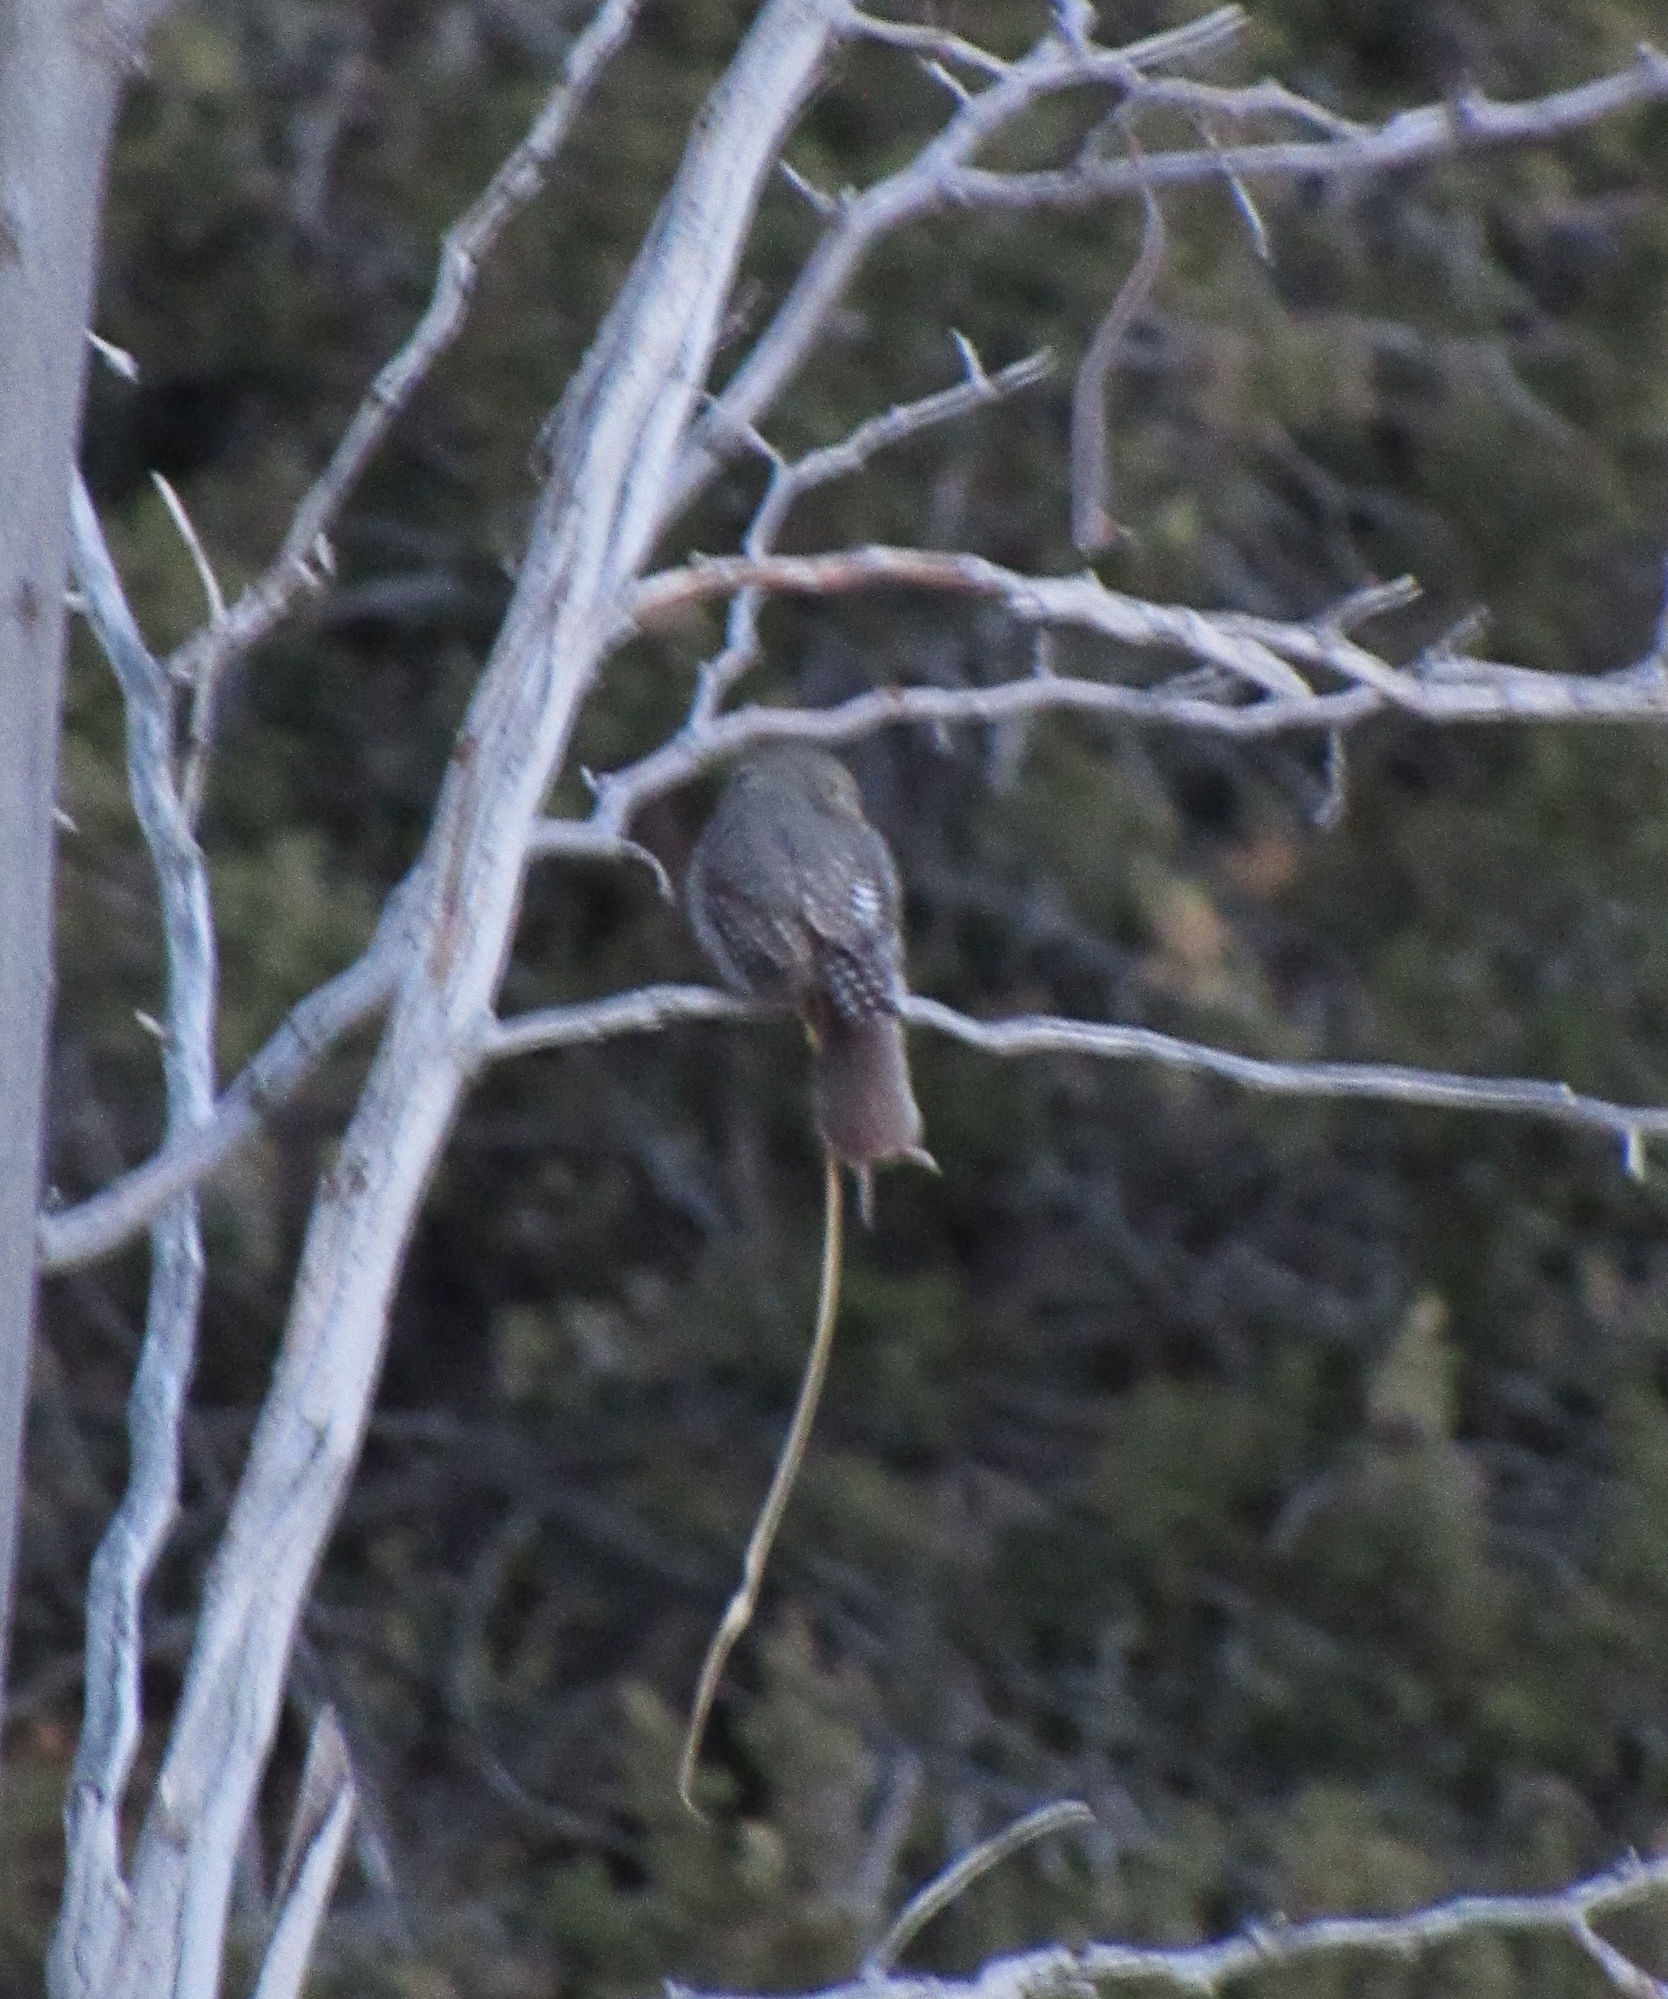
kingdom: Animalia
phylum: Chordata
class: Mammalia
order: Rodentia
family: Cricetidae
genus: Microtus
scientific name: Microtus mexicanus
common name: Mexican vole
